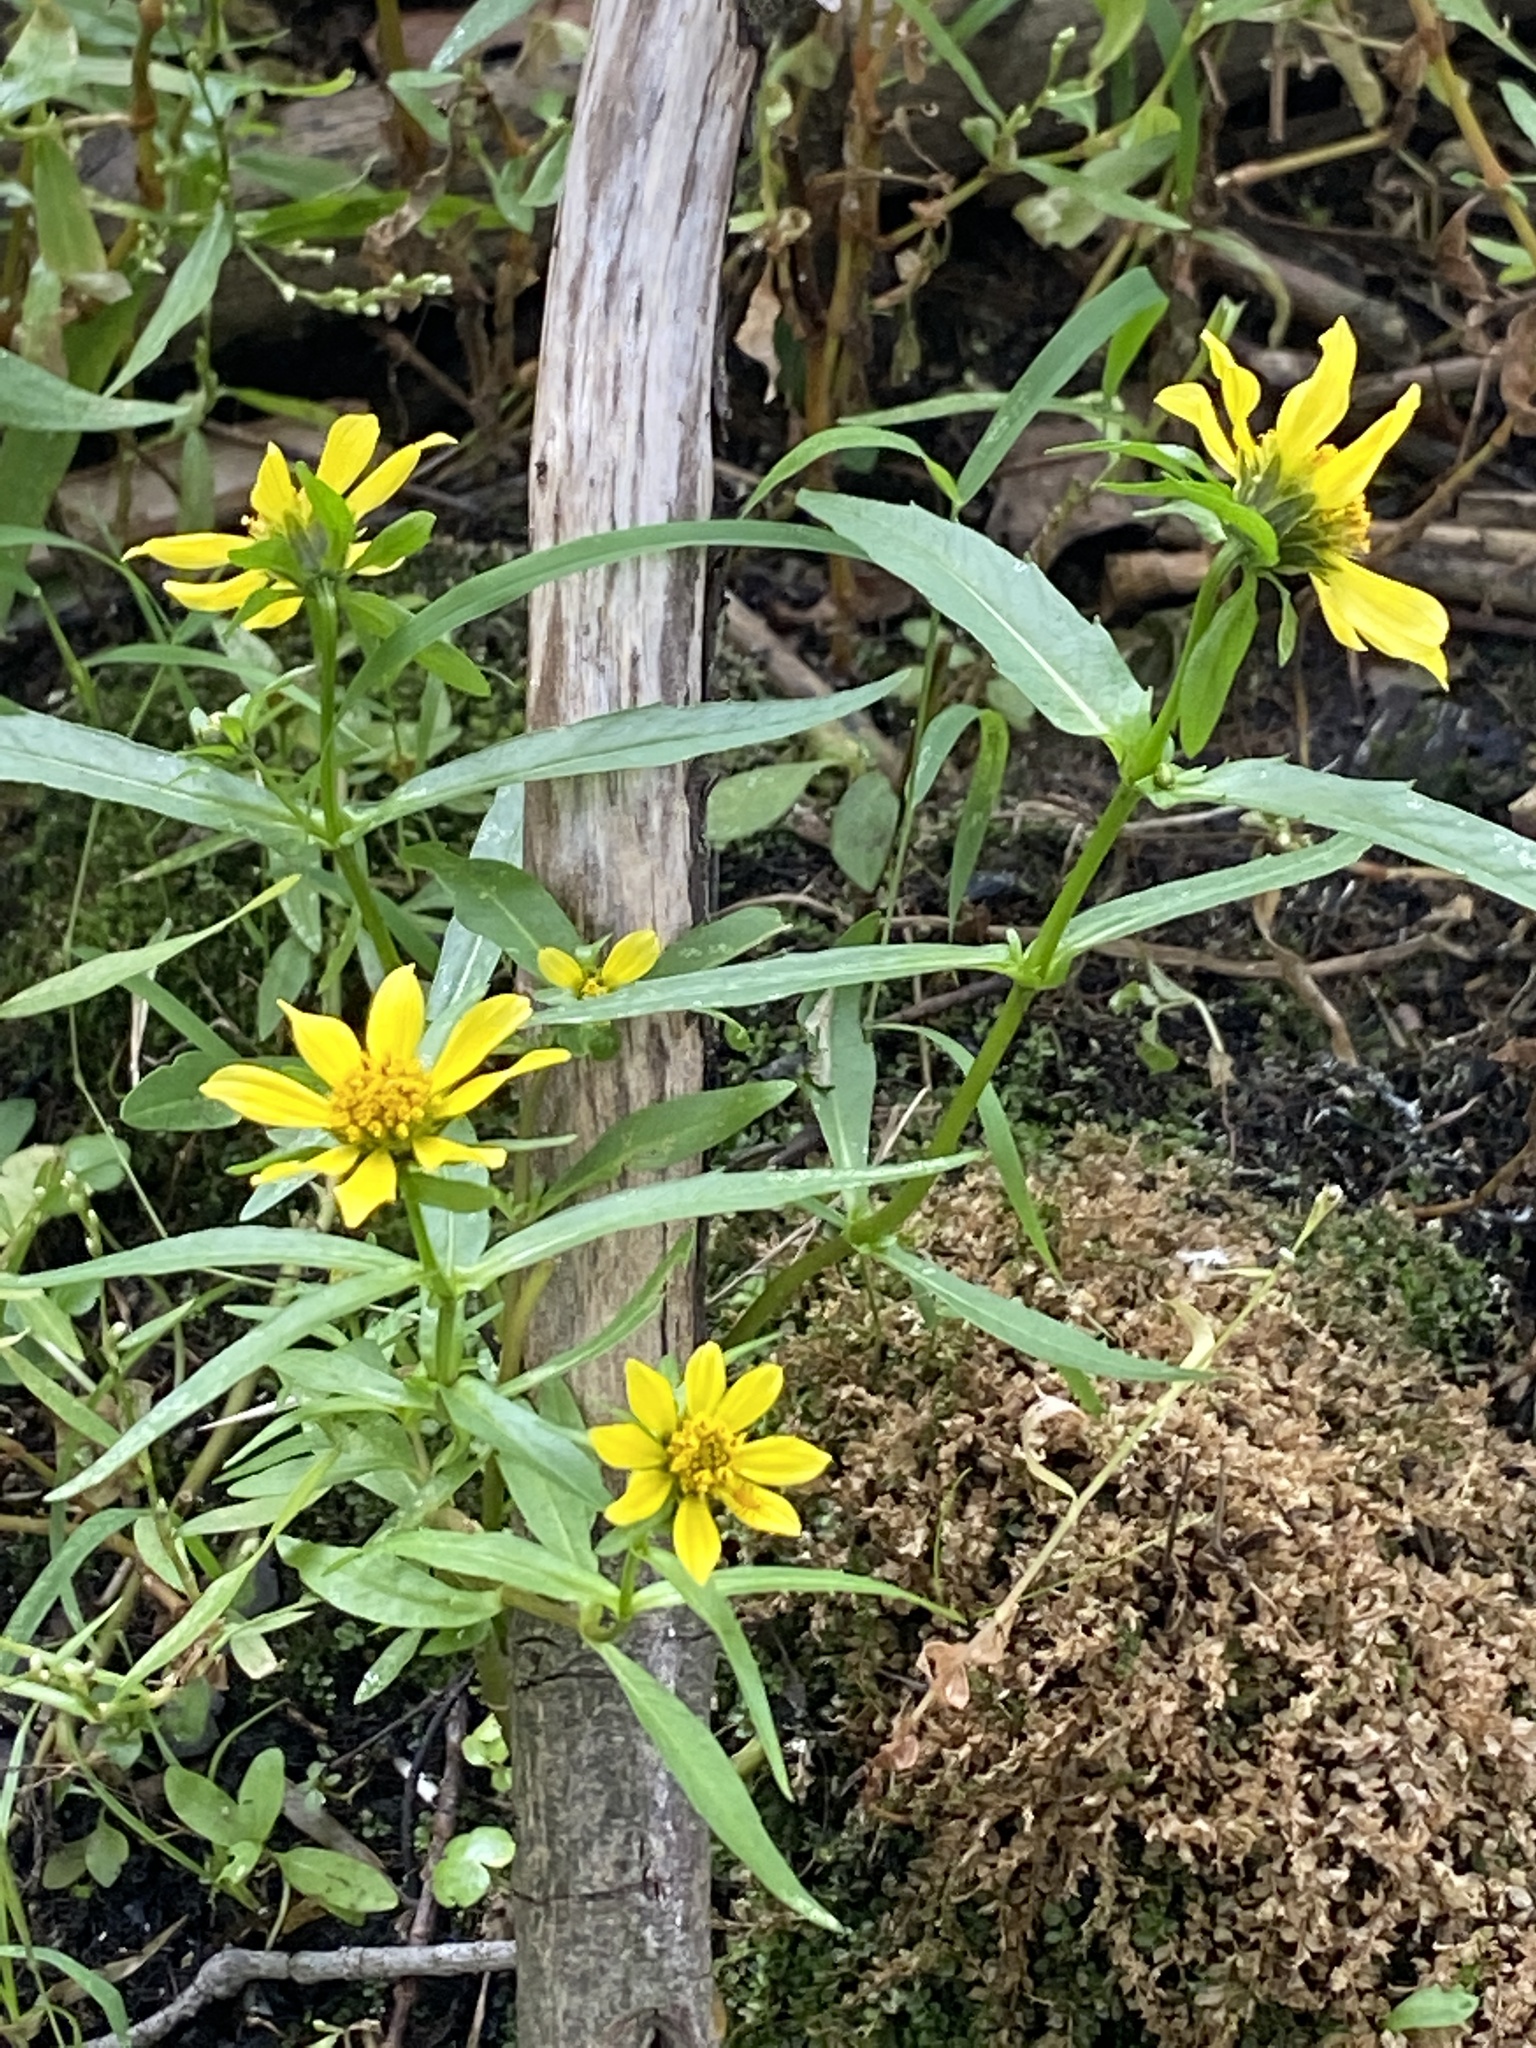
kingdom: Plantae
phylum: Tracheophyta
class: Magnoliopsida
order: Asterales
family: Asteraceae
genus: Bidens
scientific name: Bidens cernua
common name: Nodding bur-marigold
